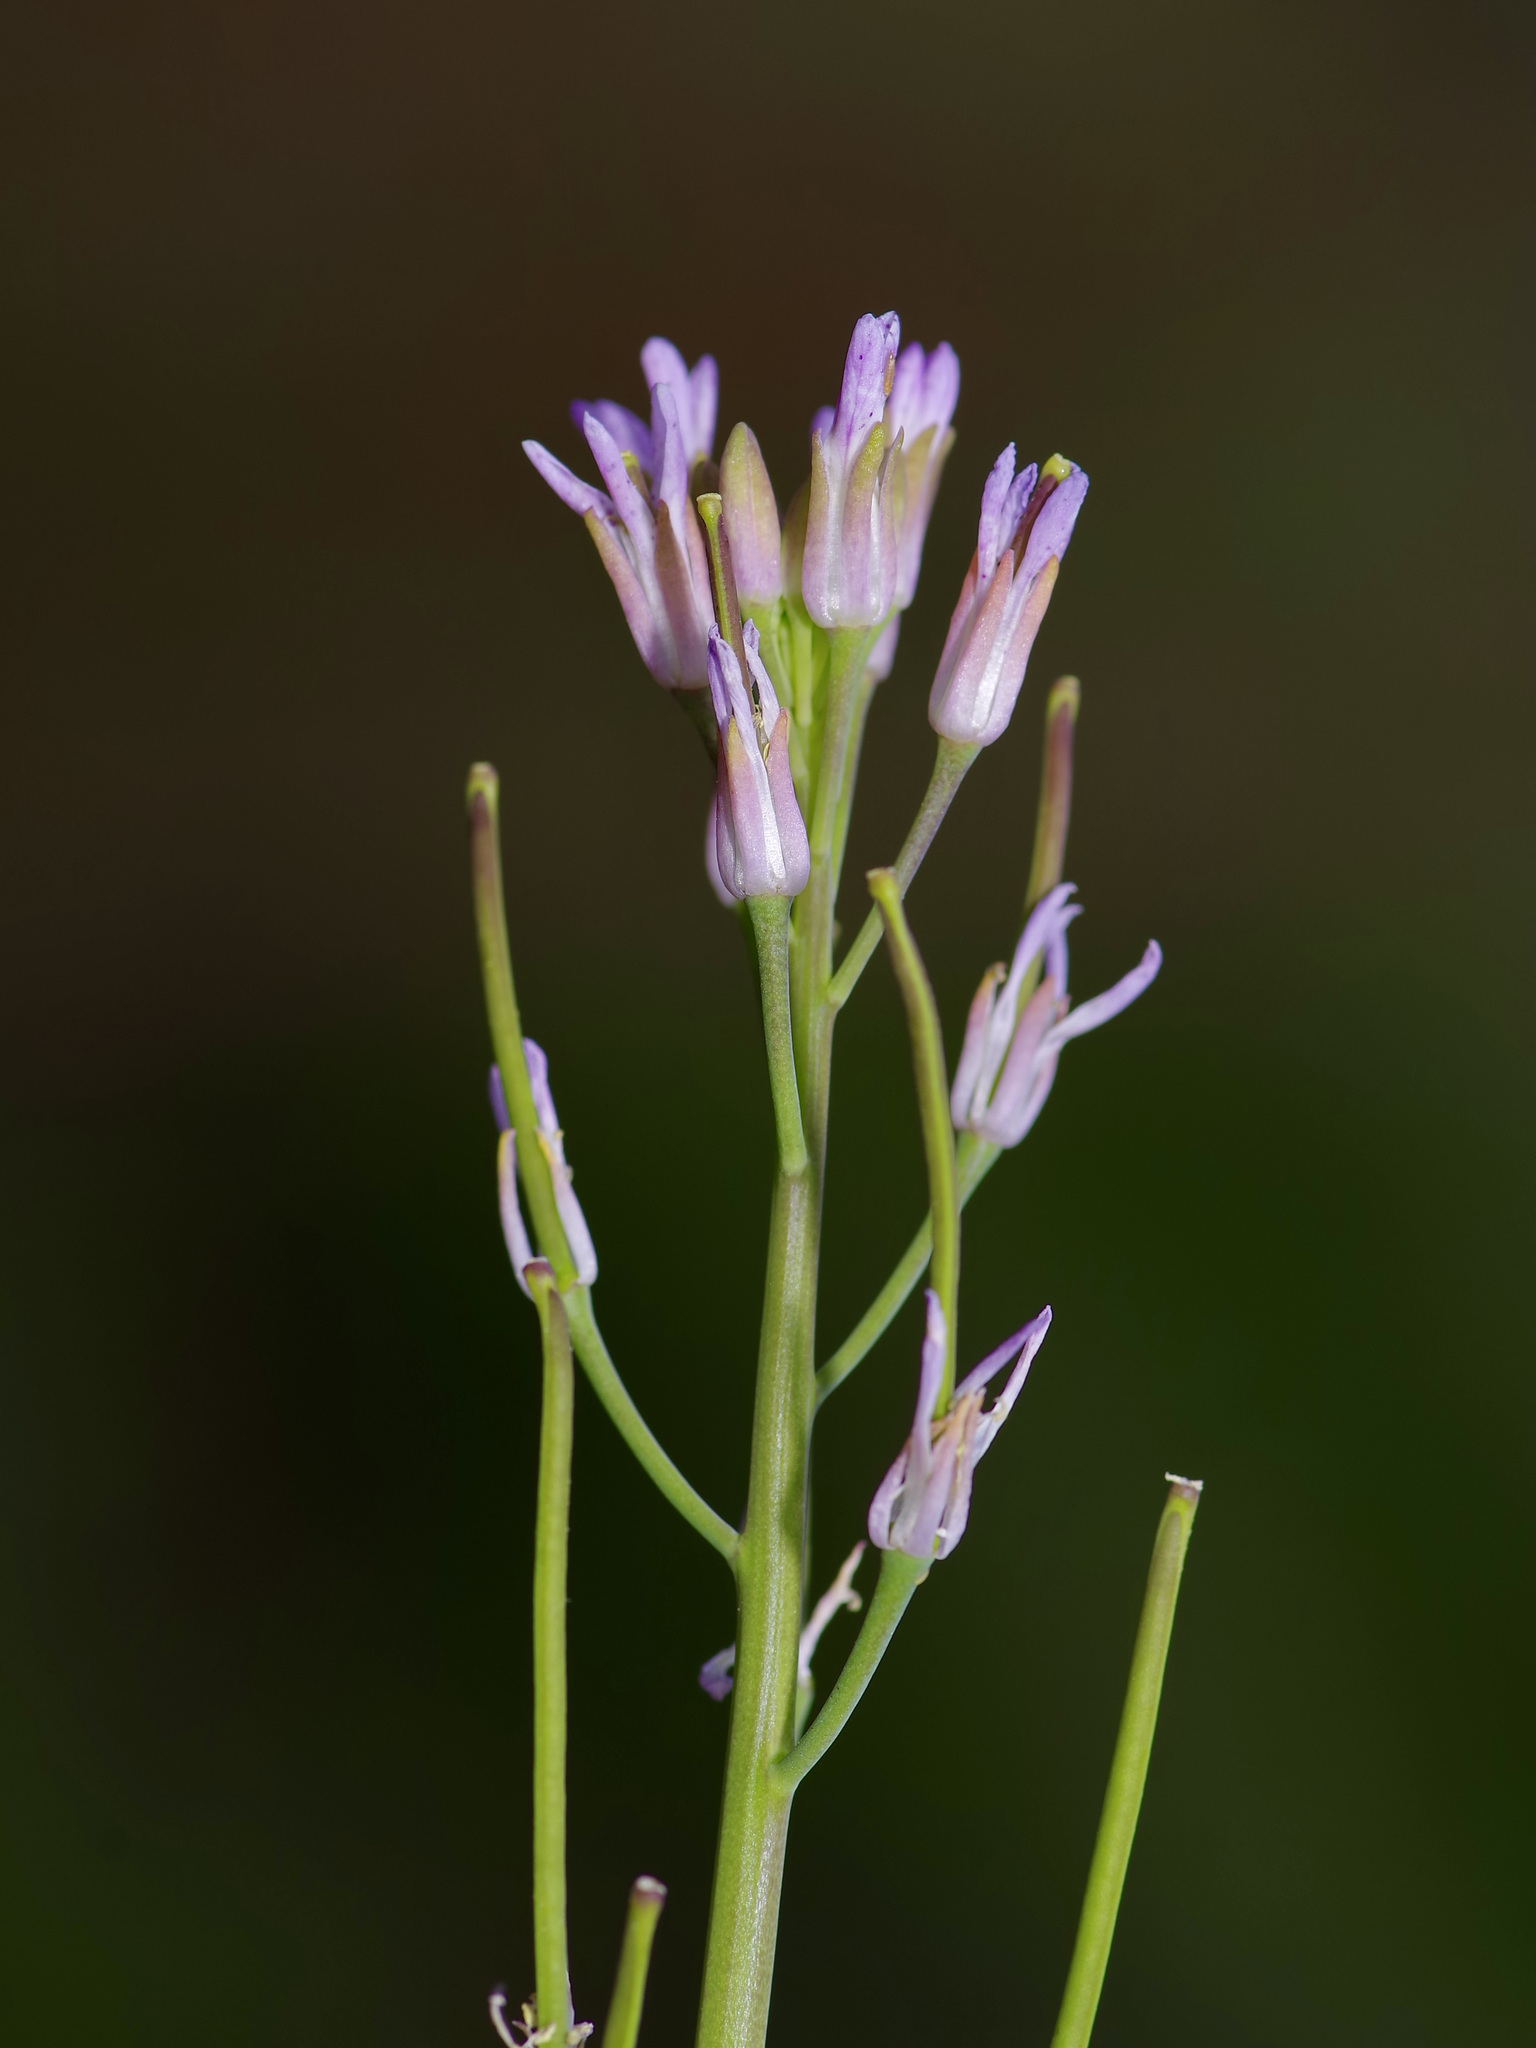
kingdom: Plantae
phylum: Tracheophyta
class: Magnoliopsida
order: Brassicales
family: Brassicaceae
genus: Streptanthus
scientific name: Streptanthus petiolaris
